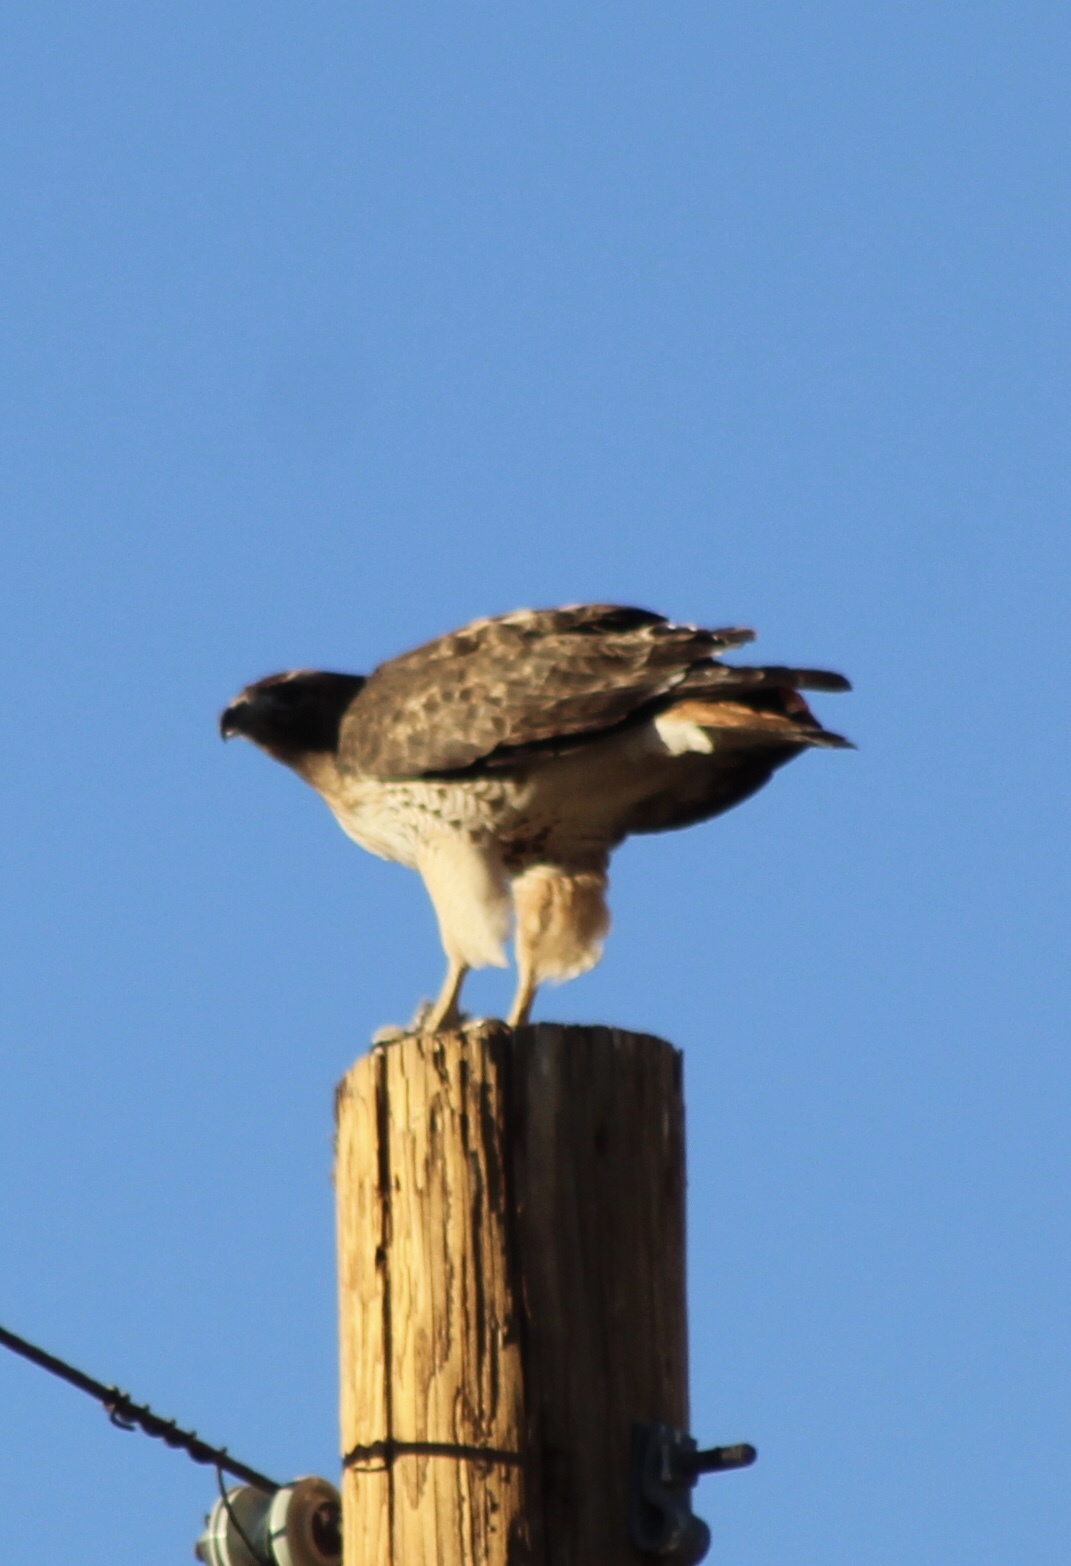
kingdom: Animalia
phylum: Chordata
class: Aves
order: Accipitriformes
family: Accipitridae
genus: Buteo
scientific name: Buteo jamaicensis
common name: Red-tailed hawk
